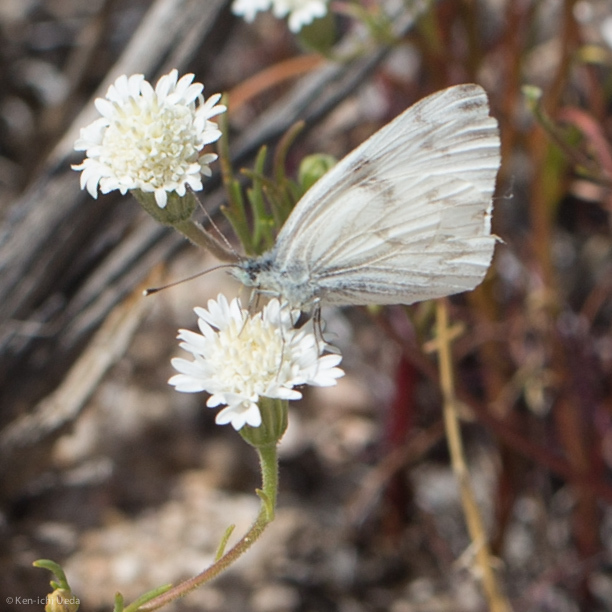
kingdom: Animalia
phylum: Arthropoda
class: Insecta
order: Lepidoptera
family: Pieridae
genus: Pontia
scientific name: Pontia protodice
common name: Checkered white
